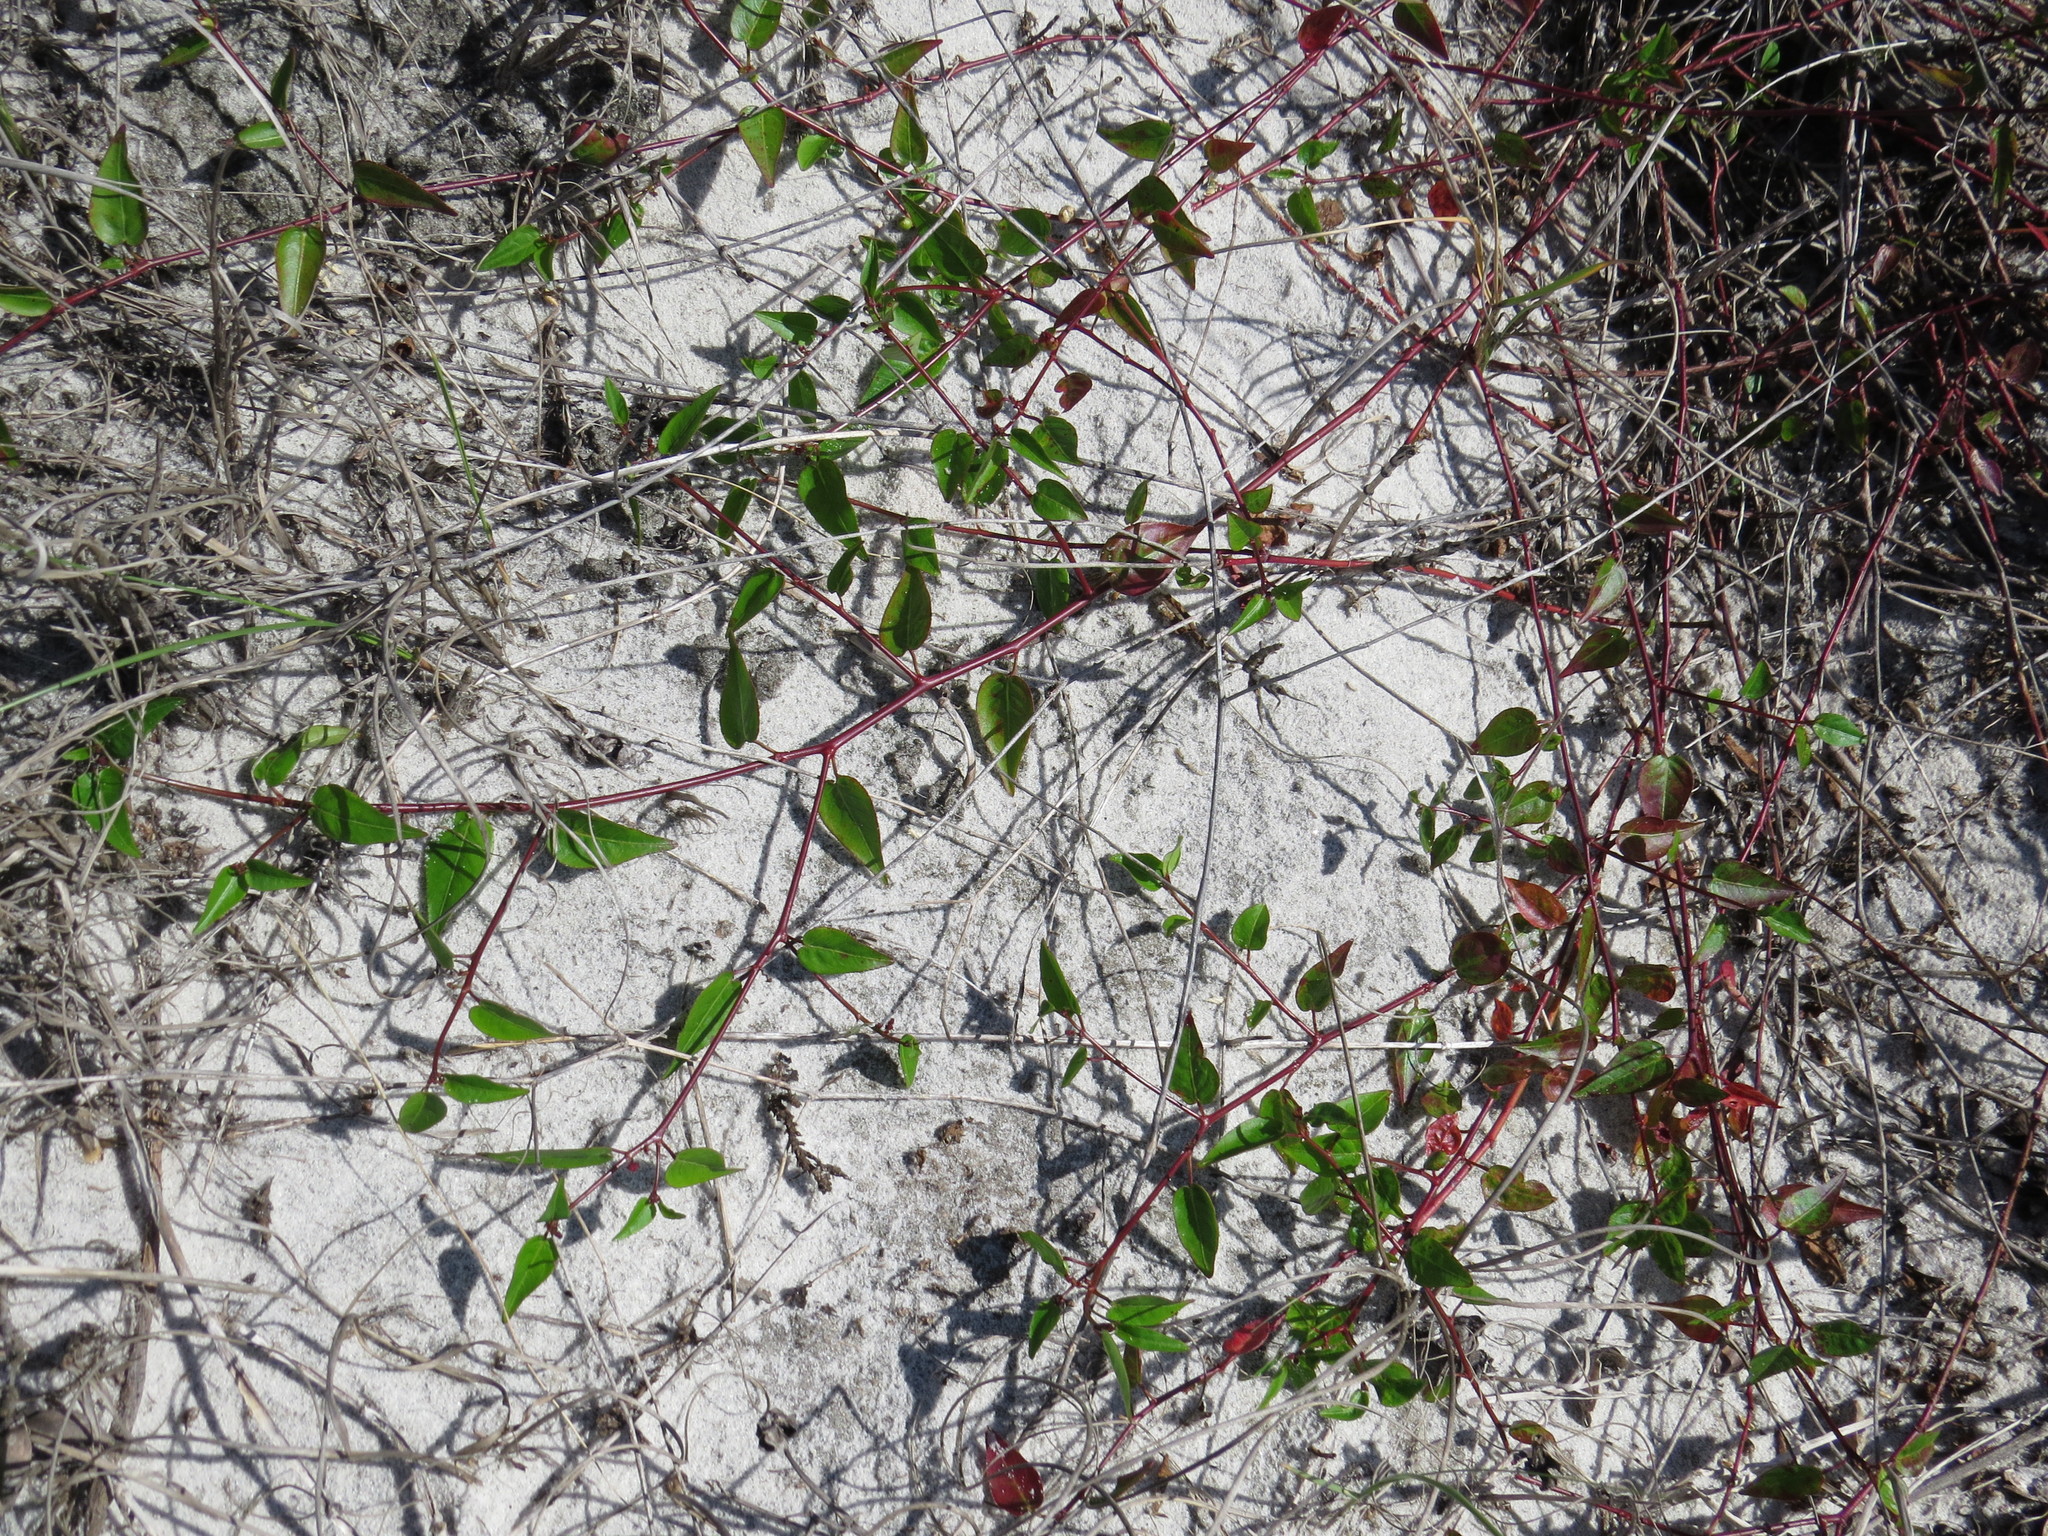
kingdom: Plantae
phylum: Tracheophyta
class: Magnoliopsida
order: Malpighiales
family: Euphorbiaceae
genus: Microstachys
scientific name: Microstachys corniculata
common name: Hato tejas
